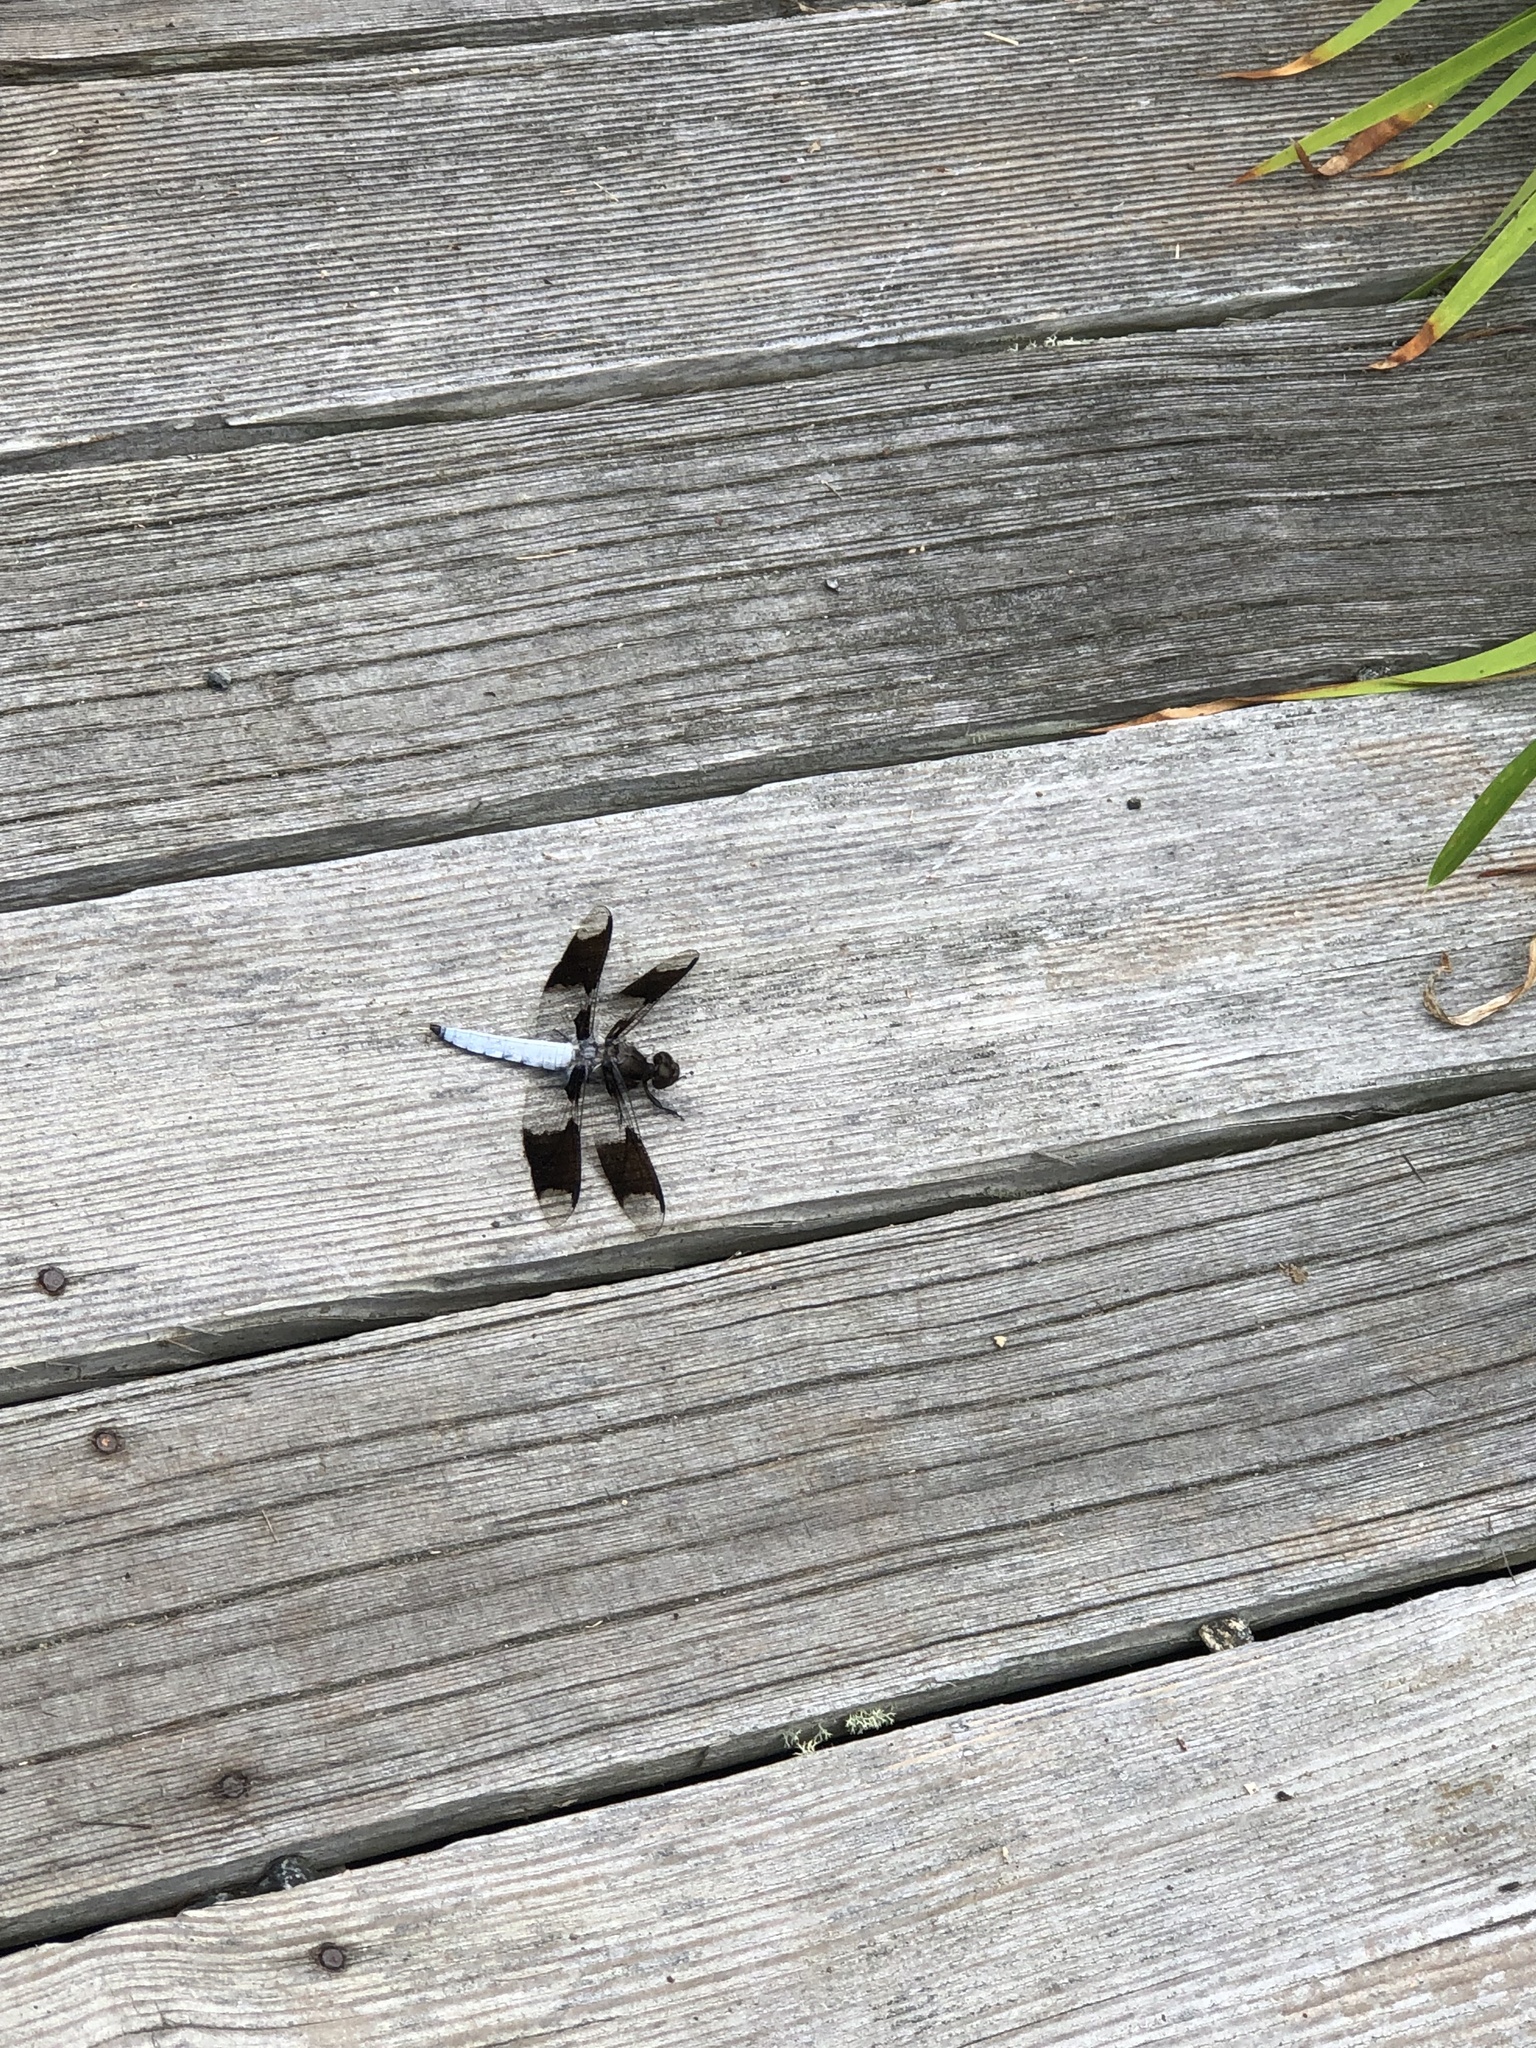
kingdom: Animalia
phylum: Arthropoda
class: Insecta
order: Odonata
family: Libellulidae
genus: Plathemis
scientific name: Plathemis lydia
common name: Common whitetail
